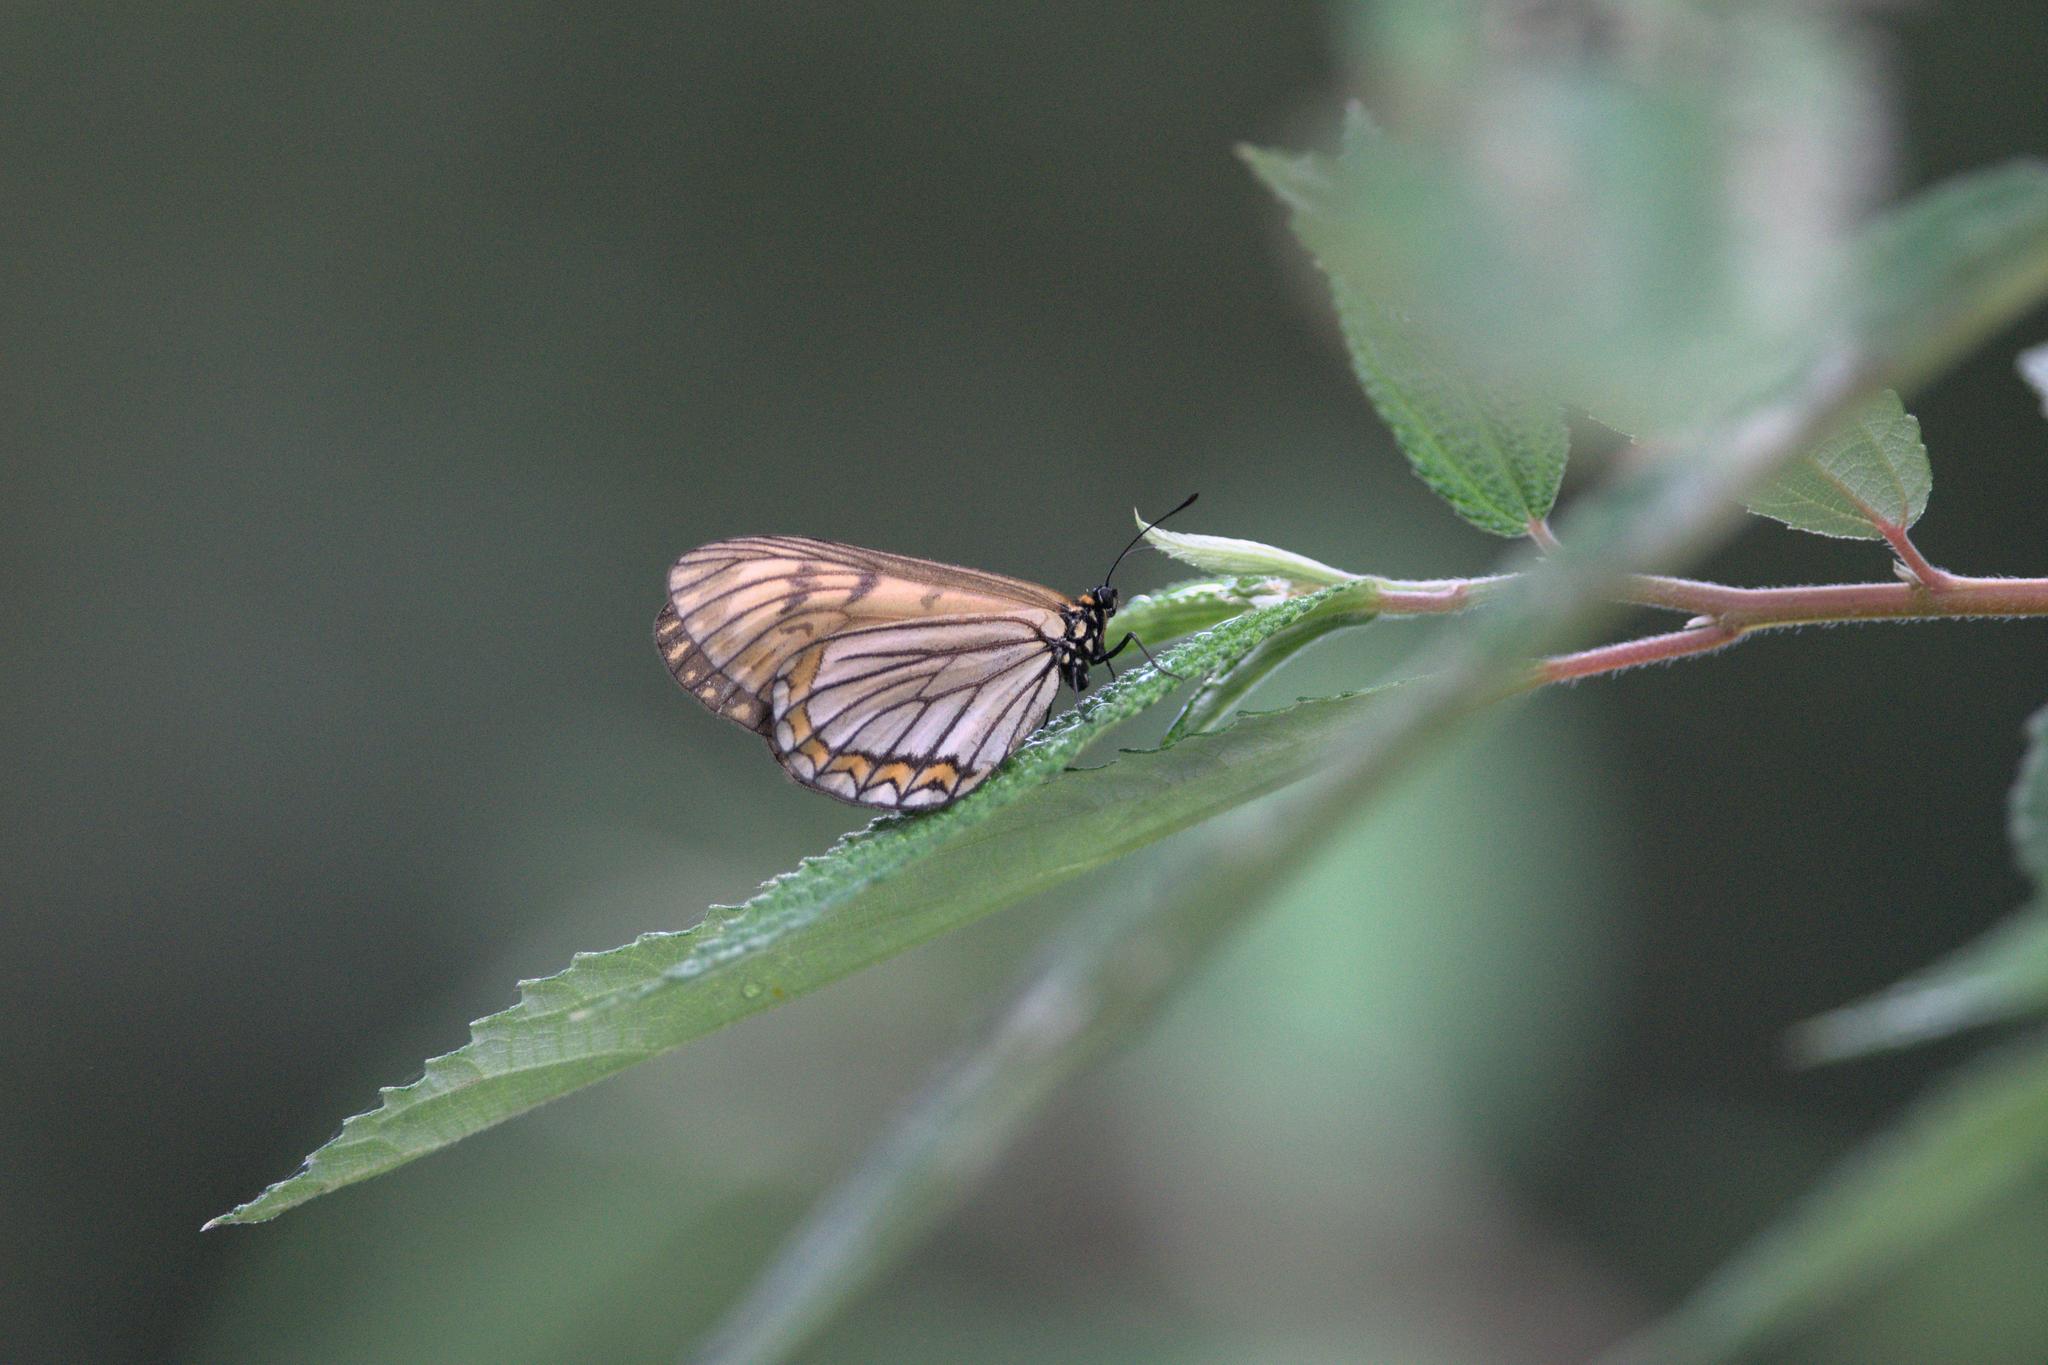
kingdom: Animalia
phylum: Arthropoda
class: Insecta
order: Lepidoptera
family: Nymphalidae
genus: Acraea
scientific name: Acraea Telchinia issoria
